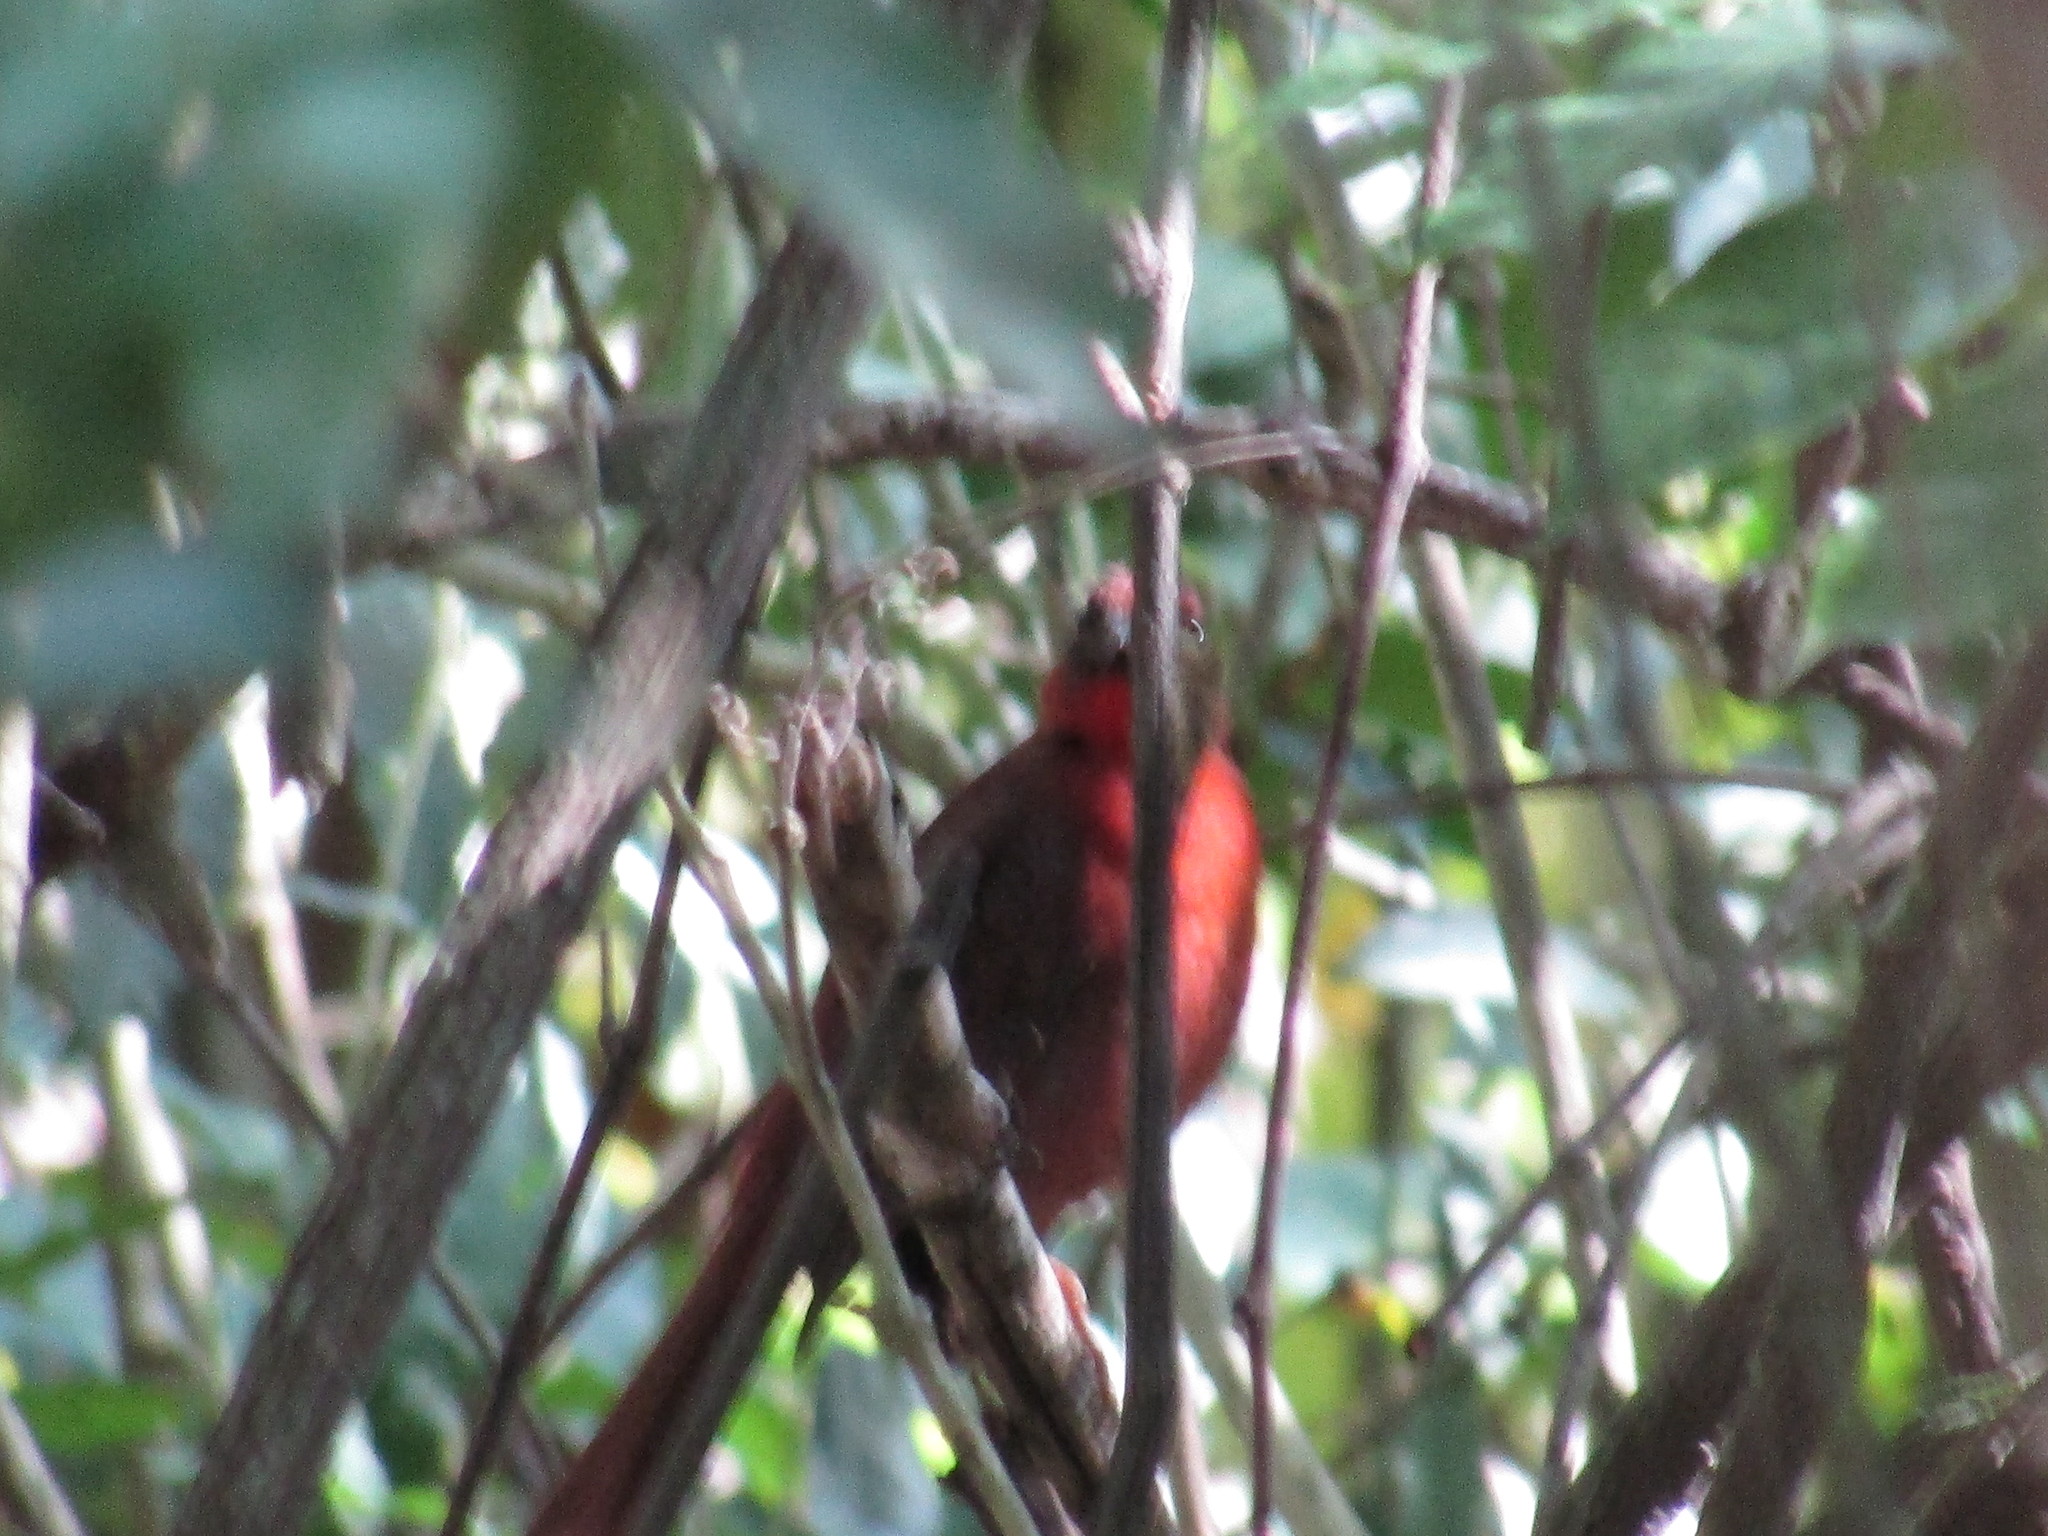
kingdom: Animalia
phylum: Chordata
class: Aves
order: Passeriformes
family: Cardinalidae
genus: Habia
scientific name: Habia fuscicauda
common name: Red-throated ant-tanager
